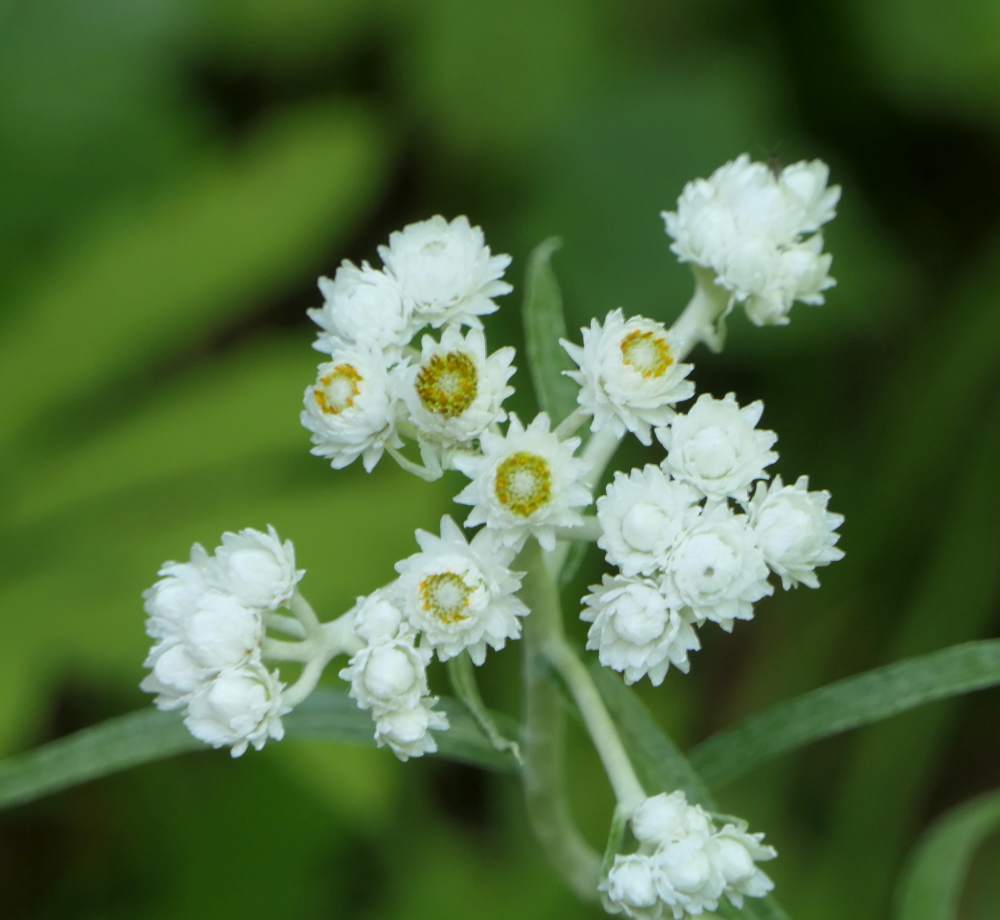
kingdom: Plantae
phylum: Tracheophyta
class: Magnoliopsida
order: Asterales
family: Asteraceae
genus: Anaphalis
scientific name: Anaphalis margaritacea
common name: Pearly everlasting
